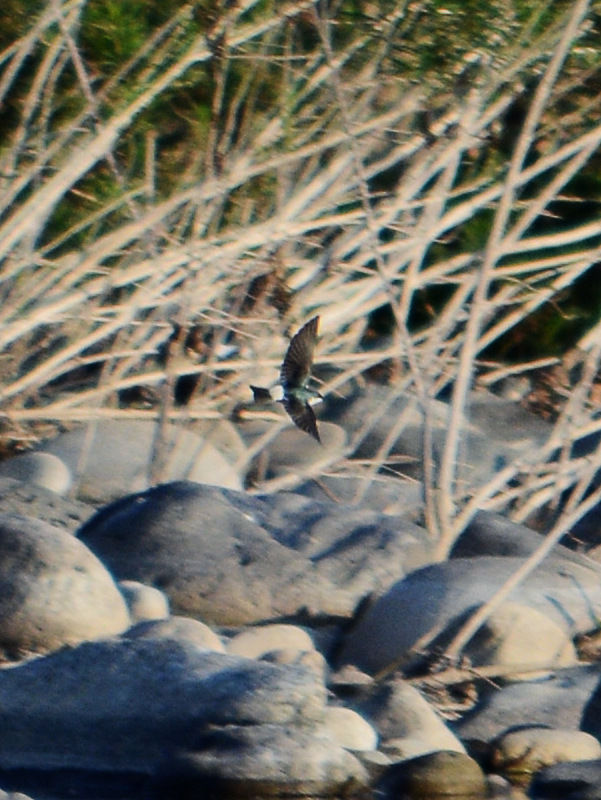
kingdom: Animalia
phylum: Chordata
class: Aves
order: Passeriformes
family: Hirundinidae
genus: Tachycineta
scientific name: Tachycineta albilinea
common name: Mangrove swallow
